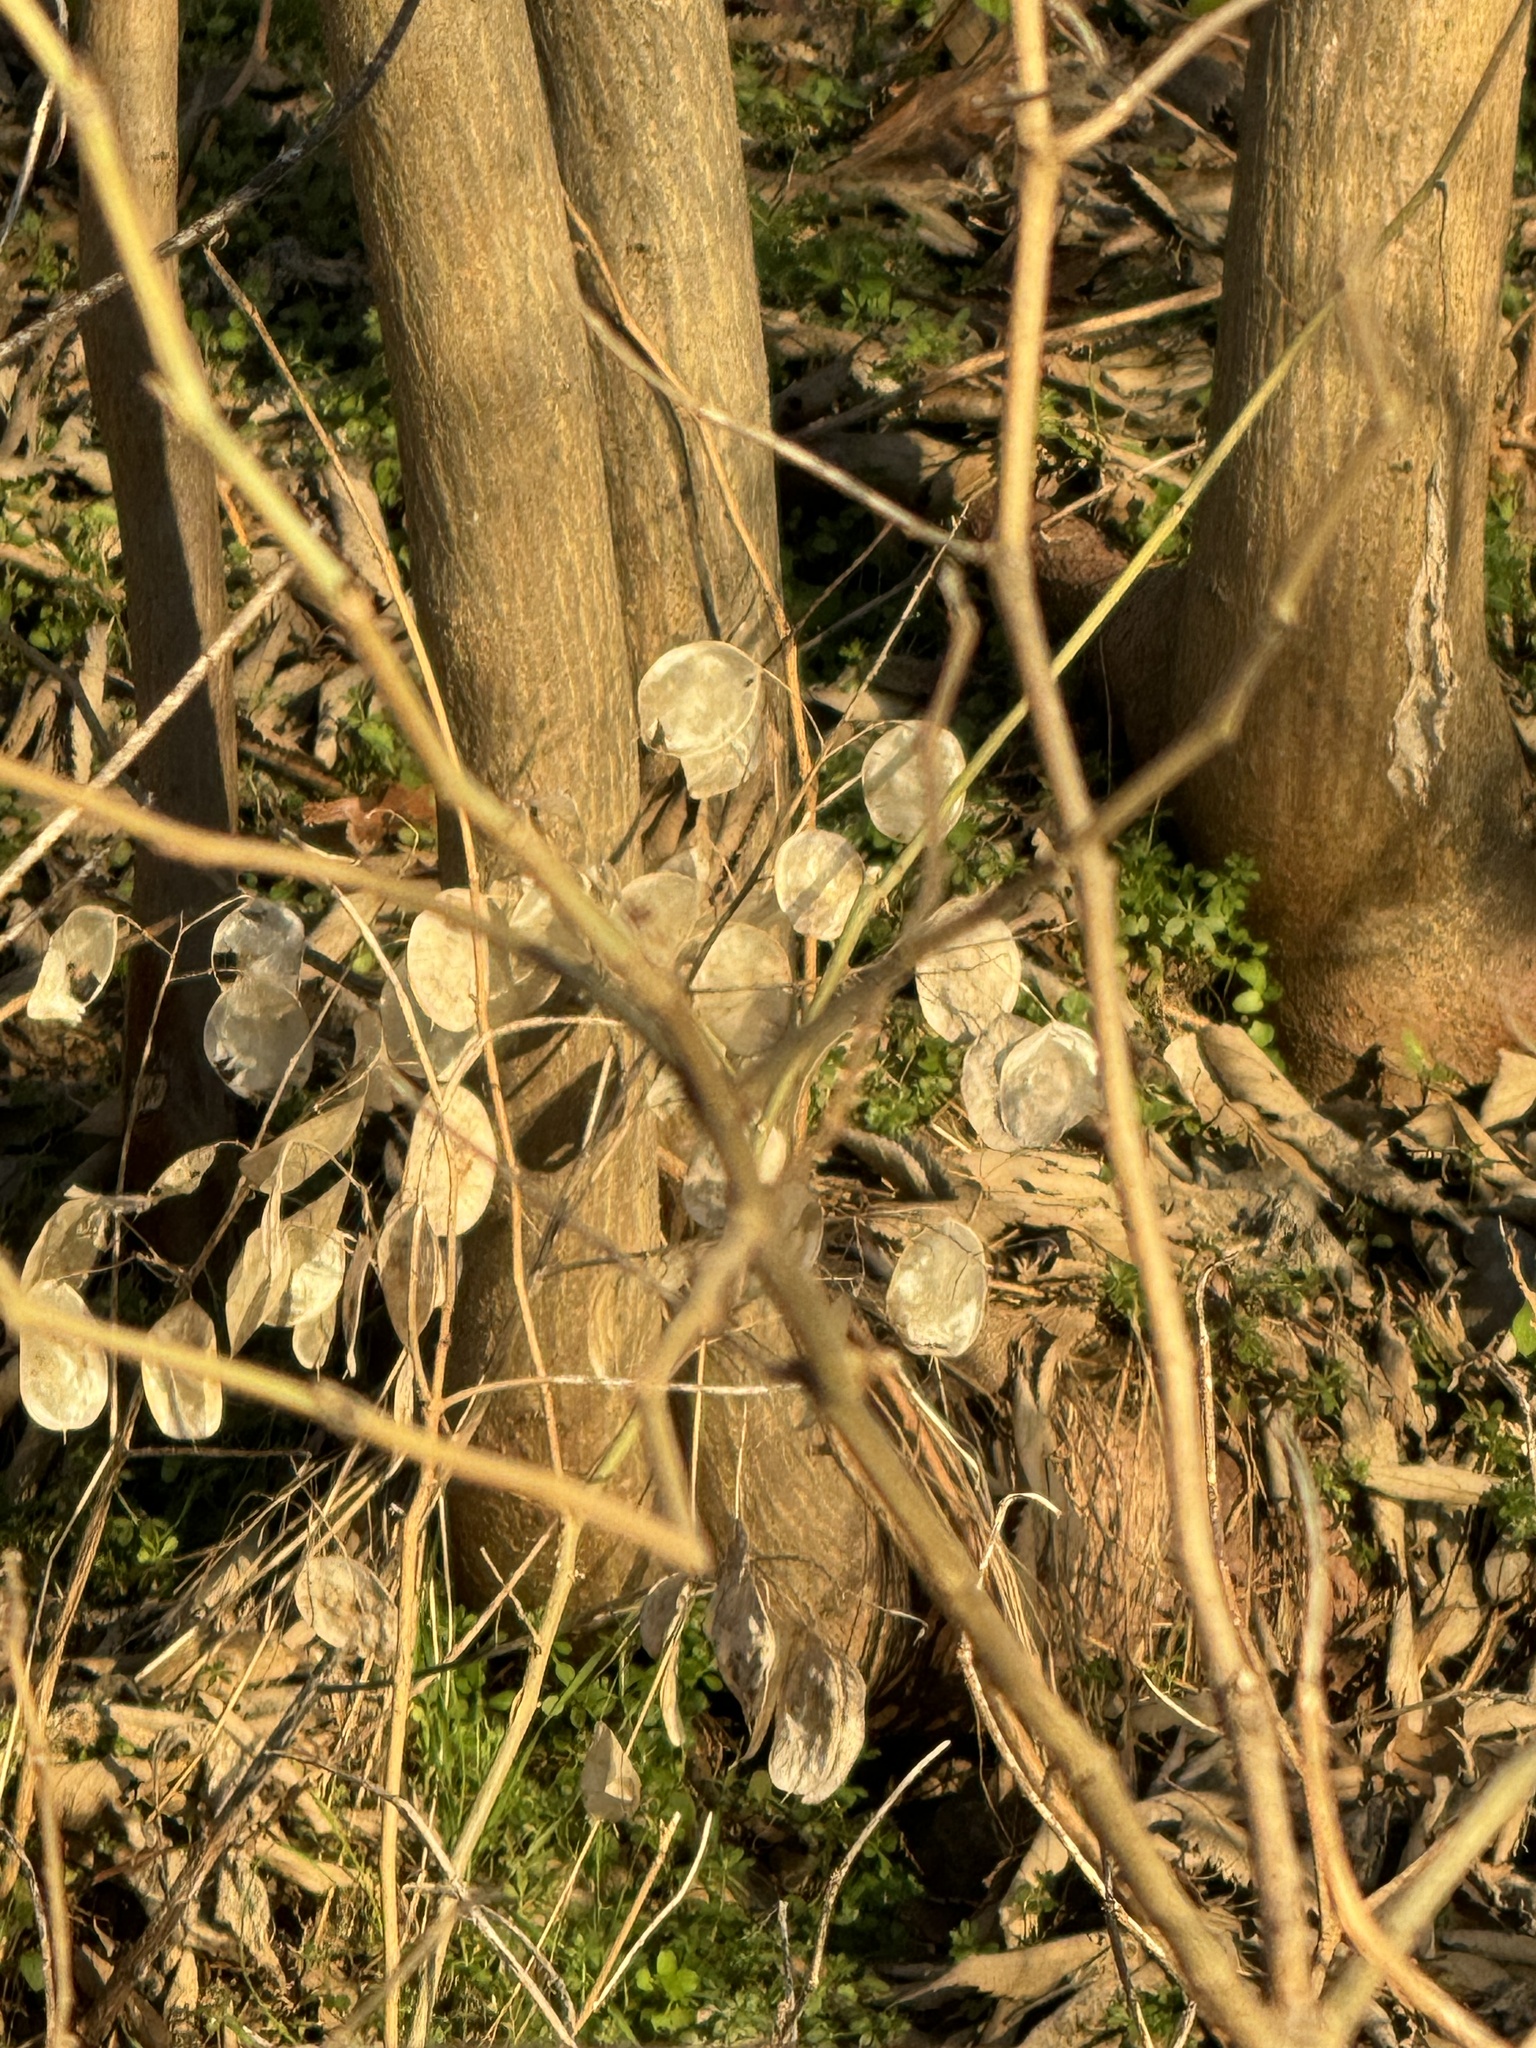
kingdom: Plantae
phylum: Tracheophyta
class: Magnoliopsida
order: Brassicales
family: Brassicaceae
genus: Lunaria
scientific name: Lunaria annua
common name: Honesty
